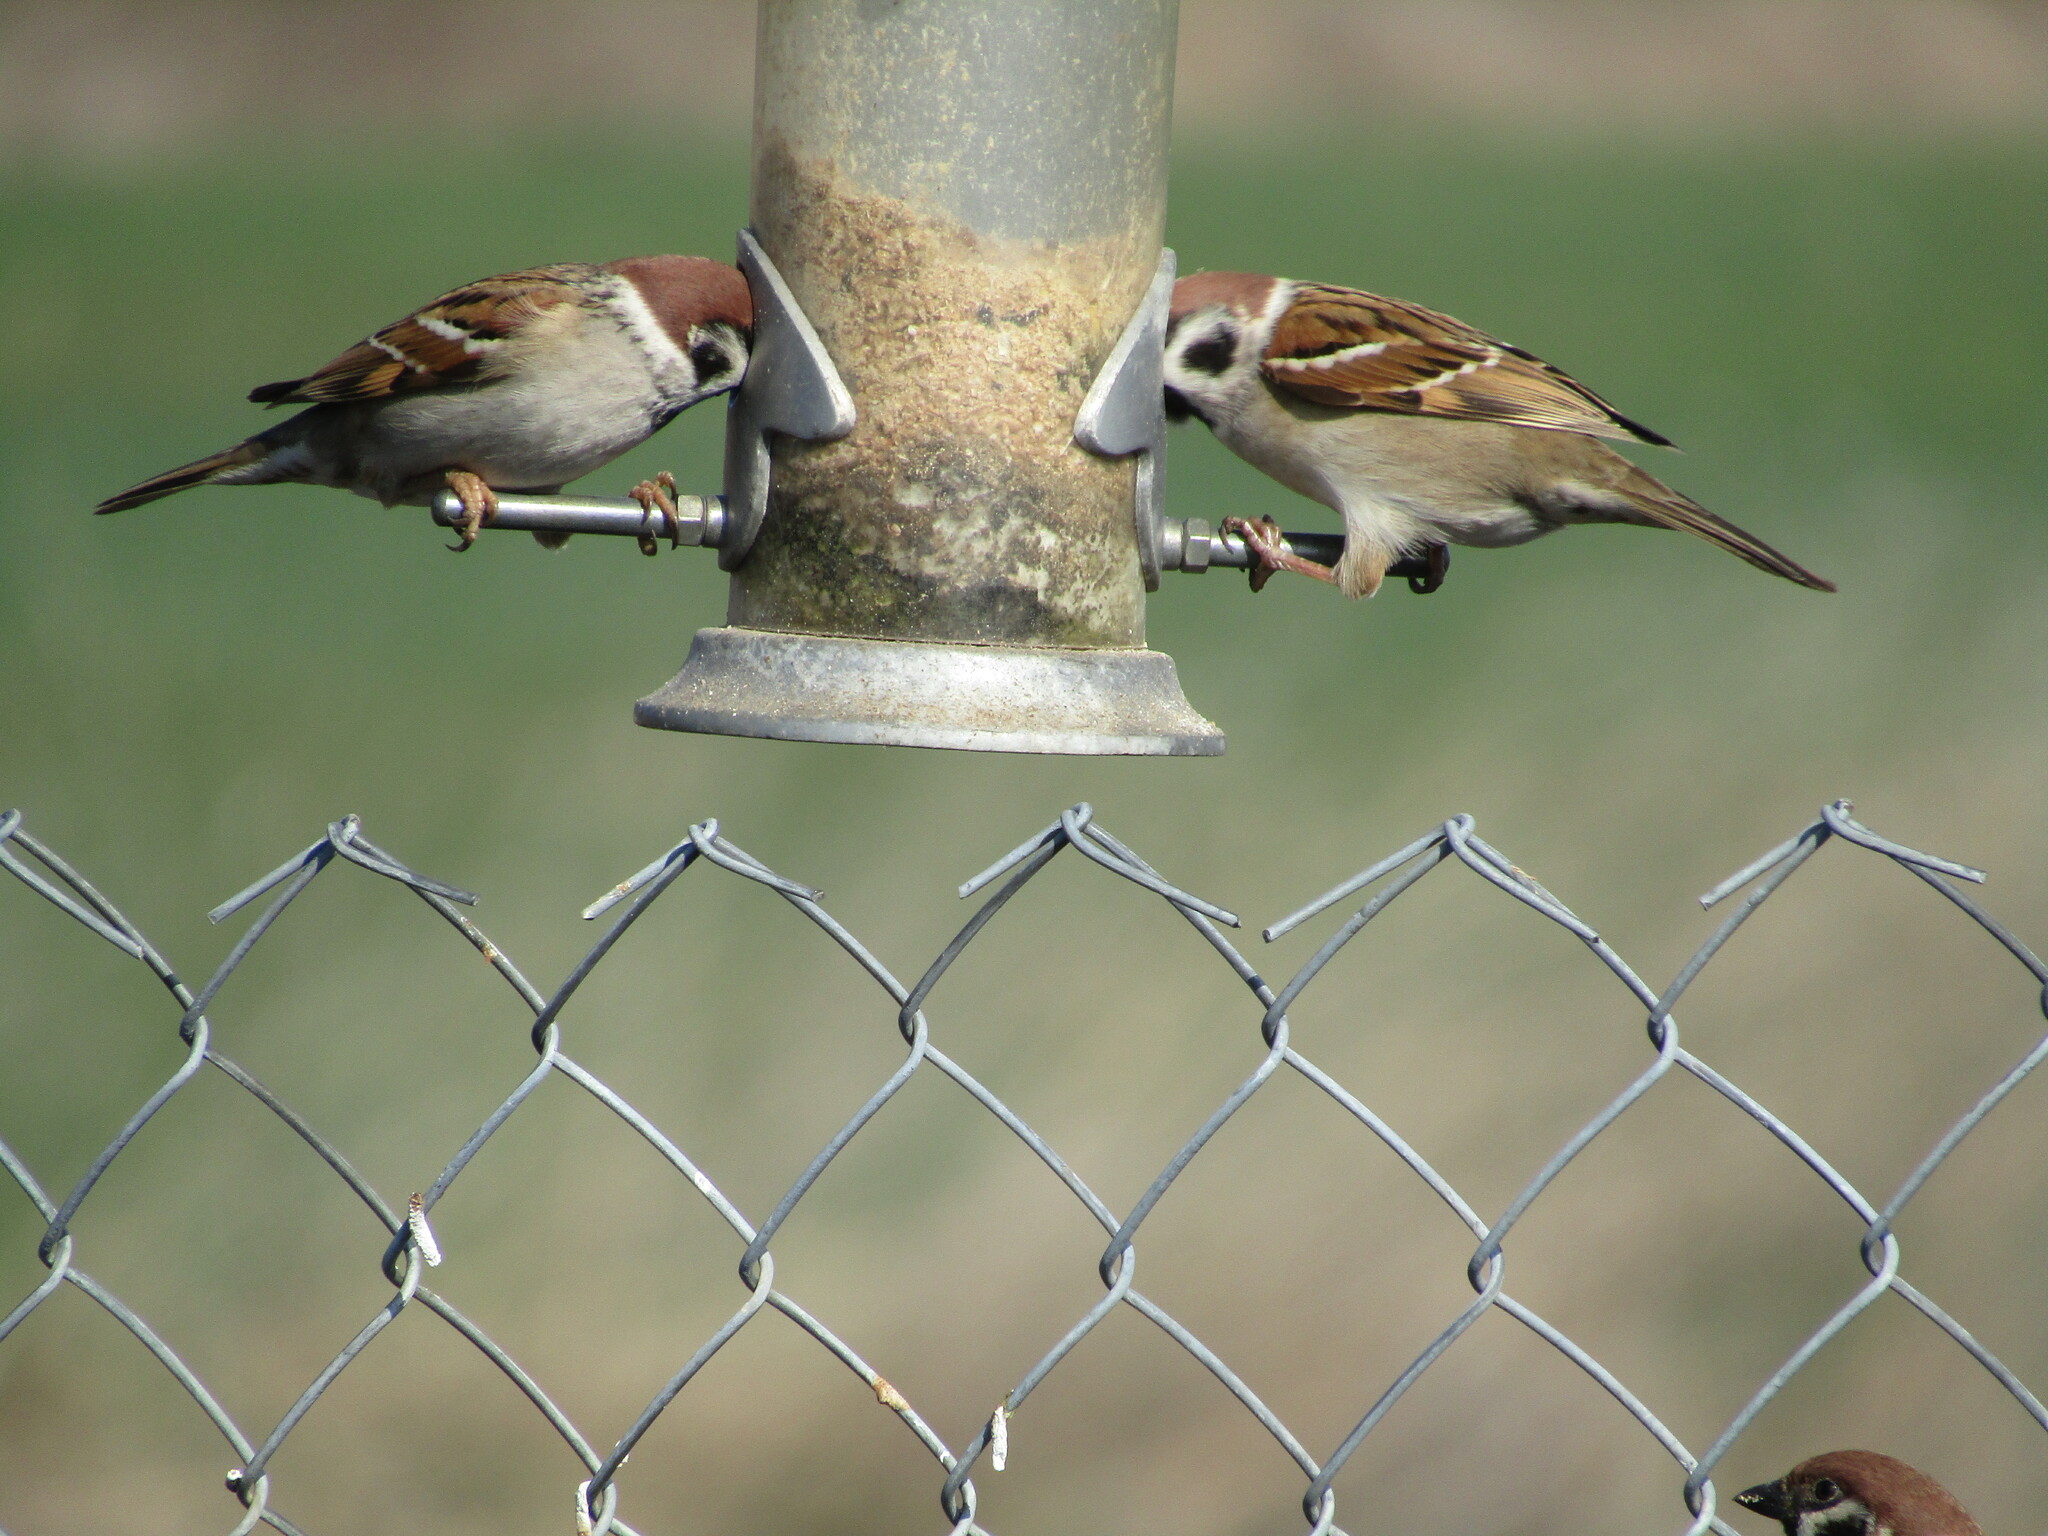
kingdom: Animalia
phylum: Chordata
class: Aves
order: Passeriformes
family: Passeridae
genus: Passer
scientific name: Passer montanus
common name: Eurasian tree sparrow
